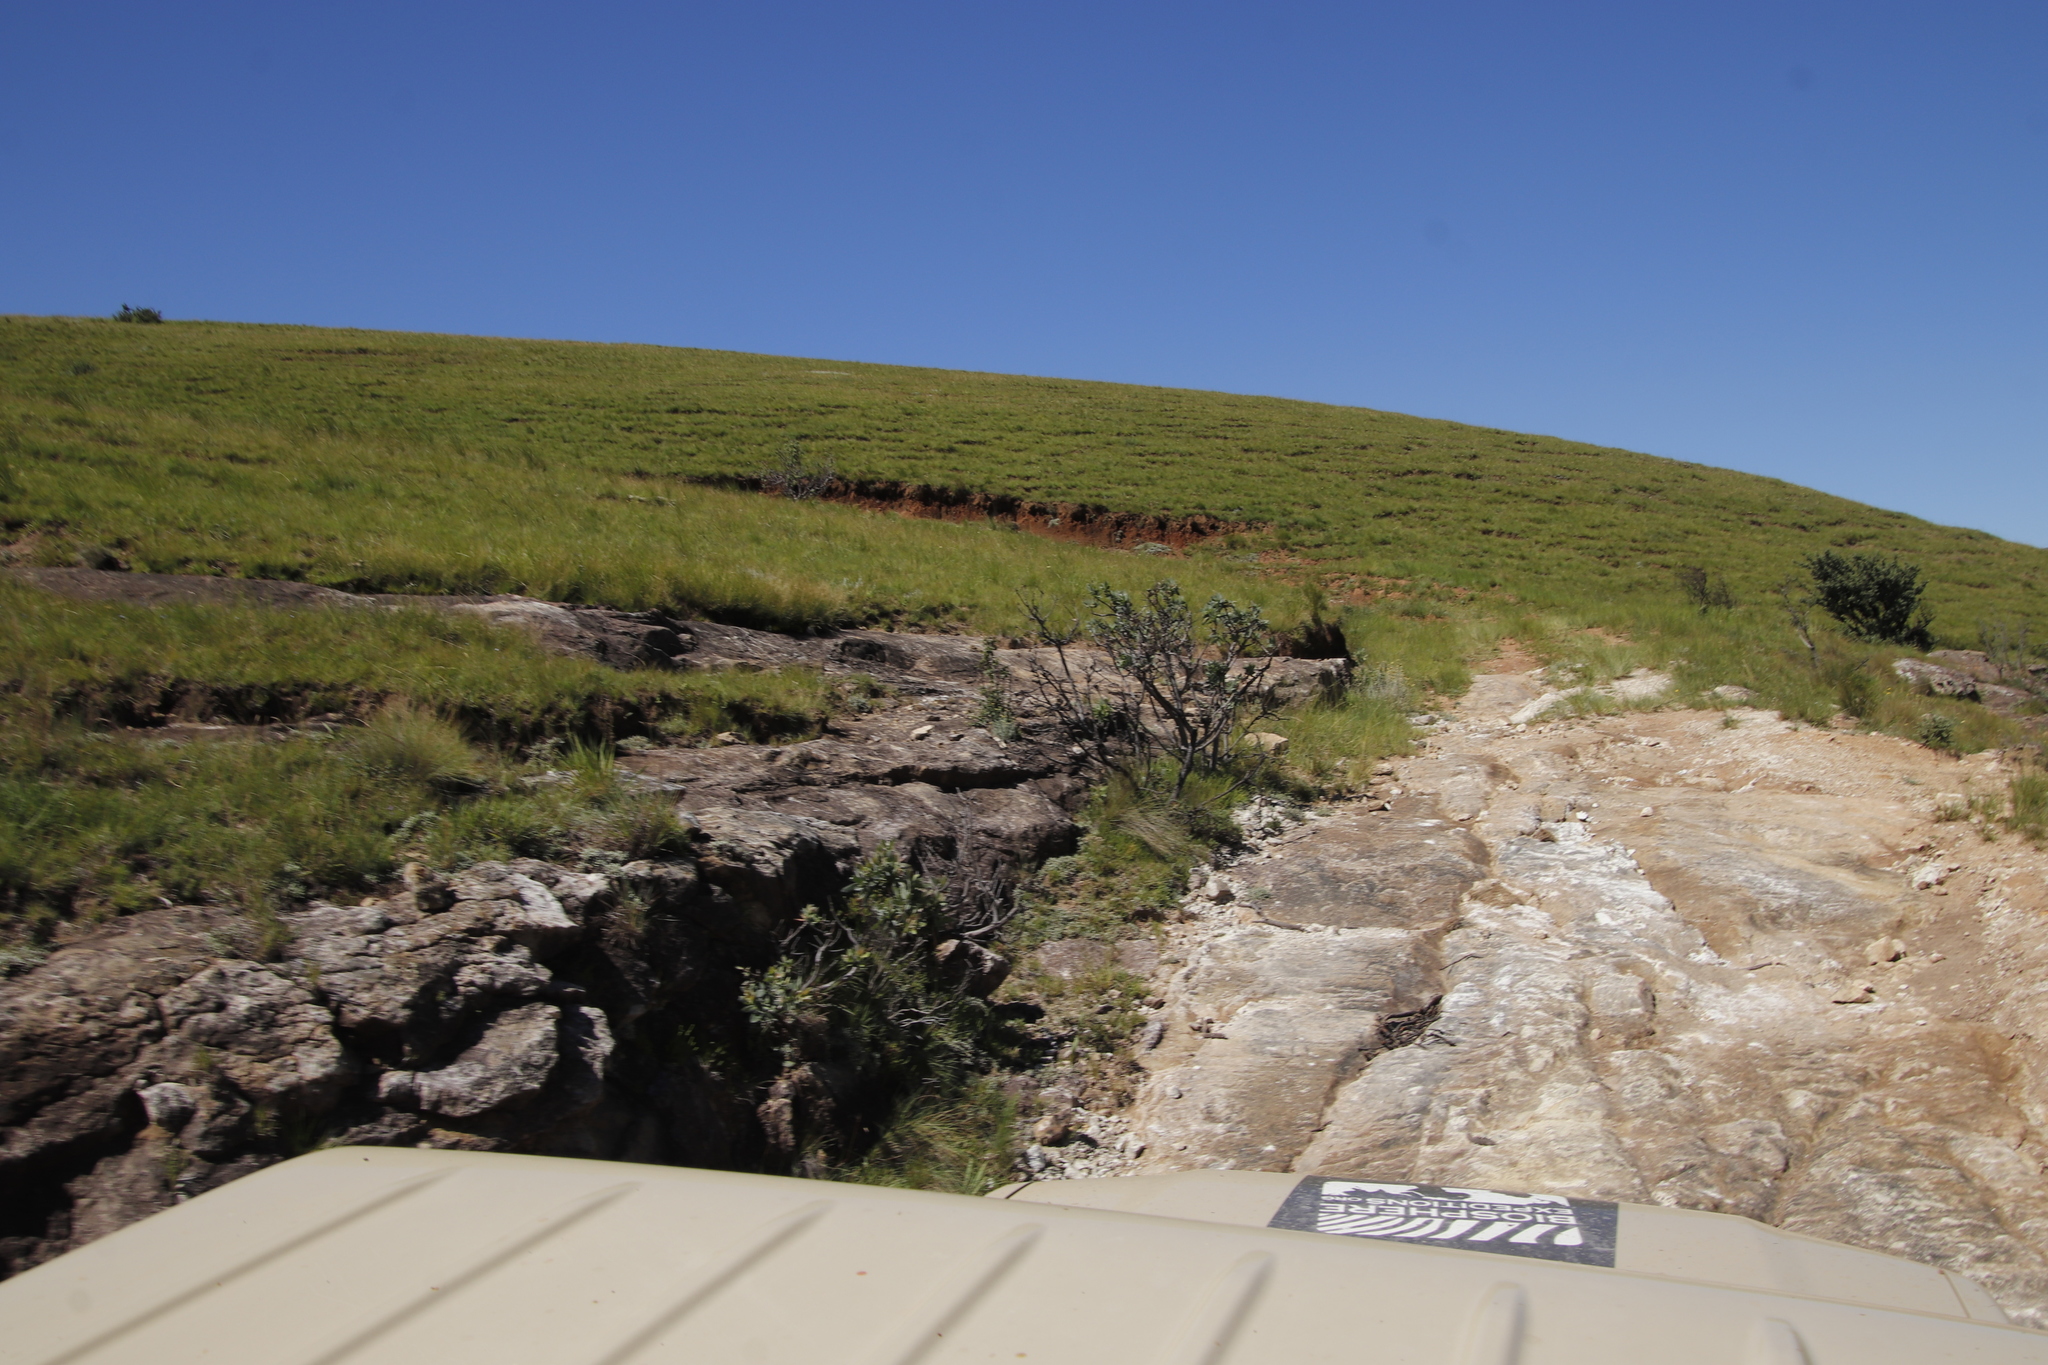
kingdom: Plantae
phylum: Tracheophyta
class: Magnoliopsida
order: Proteales
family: Proteaceae
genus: Protea
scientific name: Protea subvestita
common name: Lip-flower sugarbush
